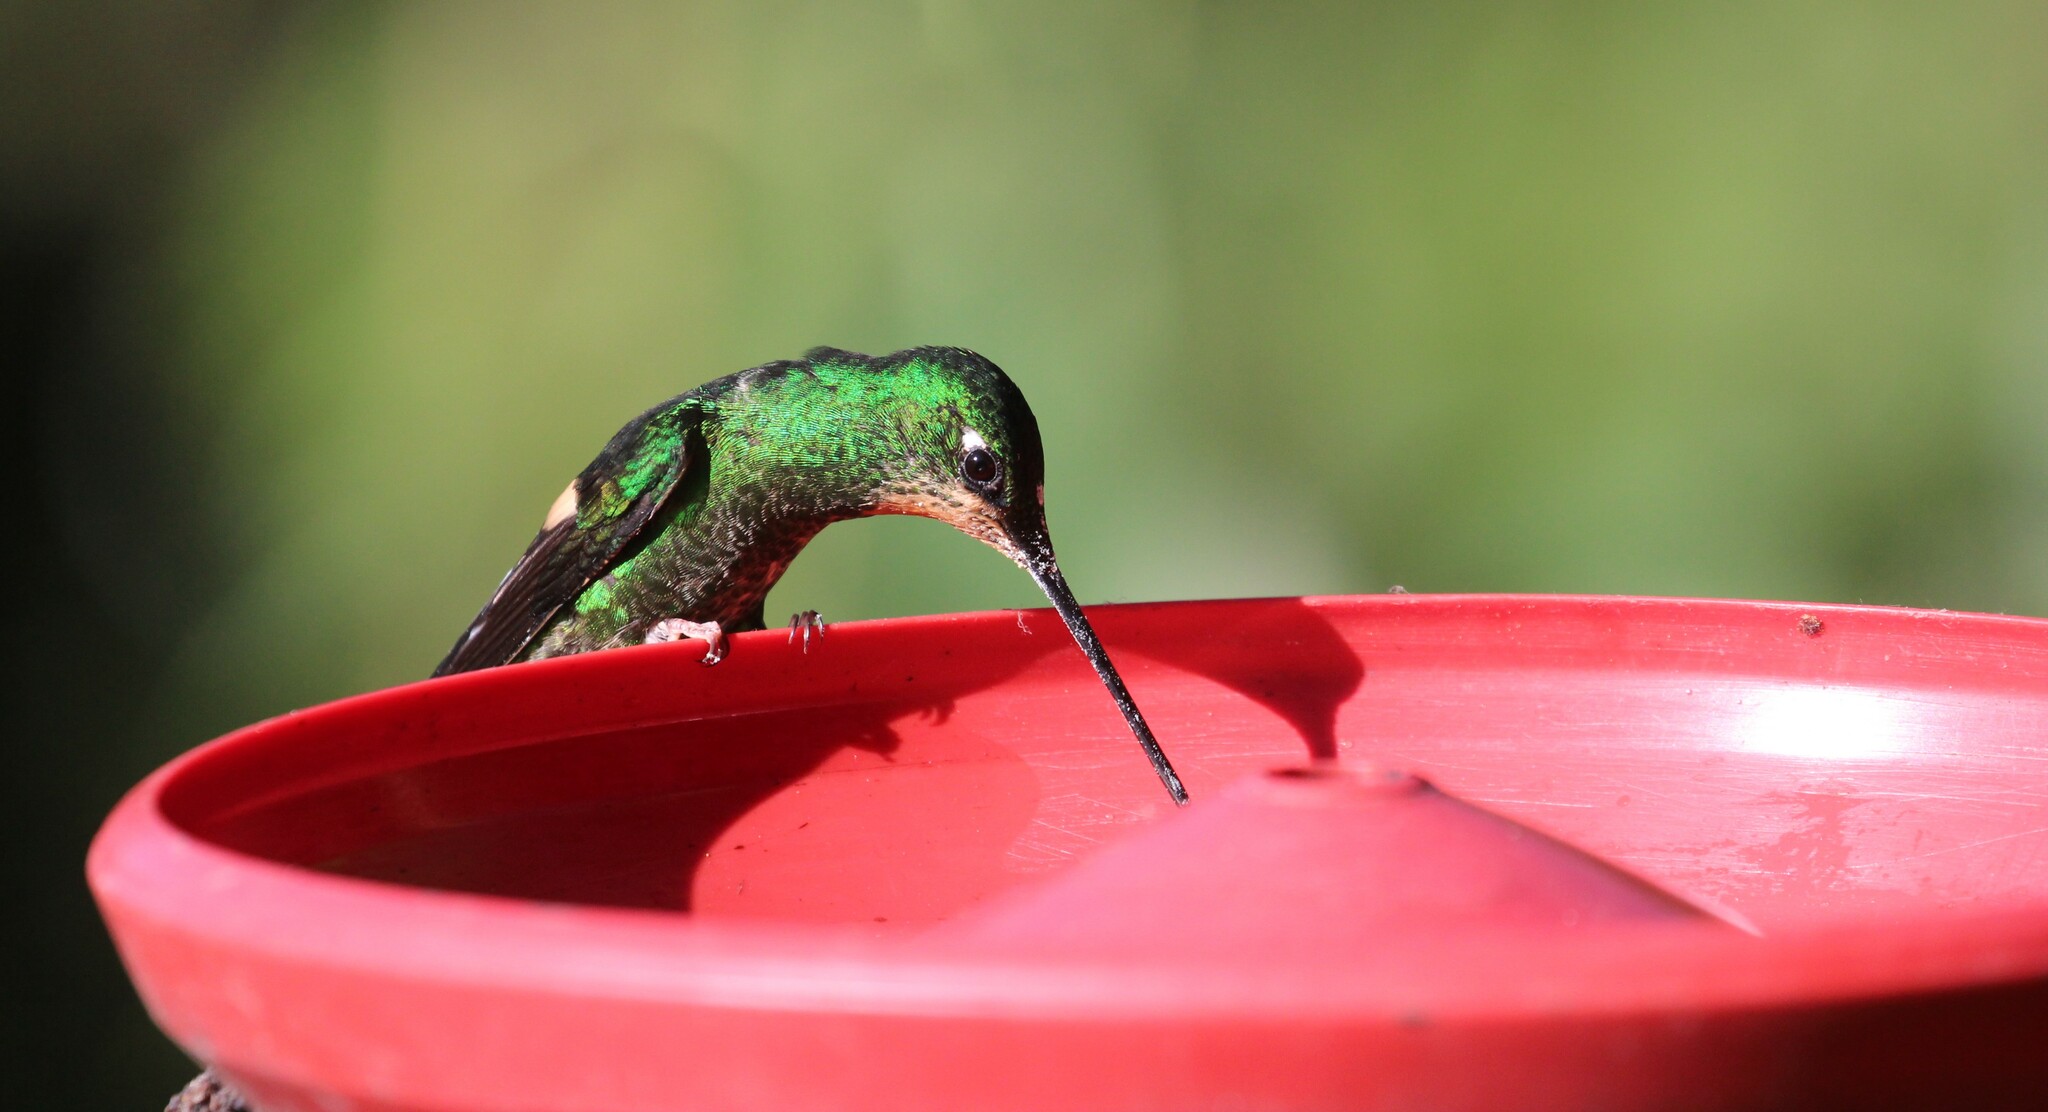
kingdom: Animalia
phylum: Chordata
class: Aves
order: Apodiformes
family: Trochilidae
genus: Coeligena
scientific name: Coeligena lutetiae
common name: Buff-winged starfrontlet
